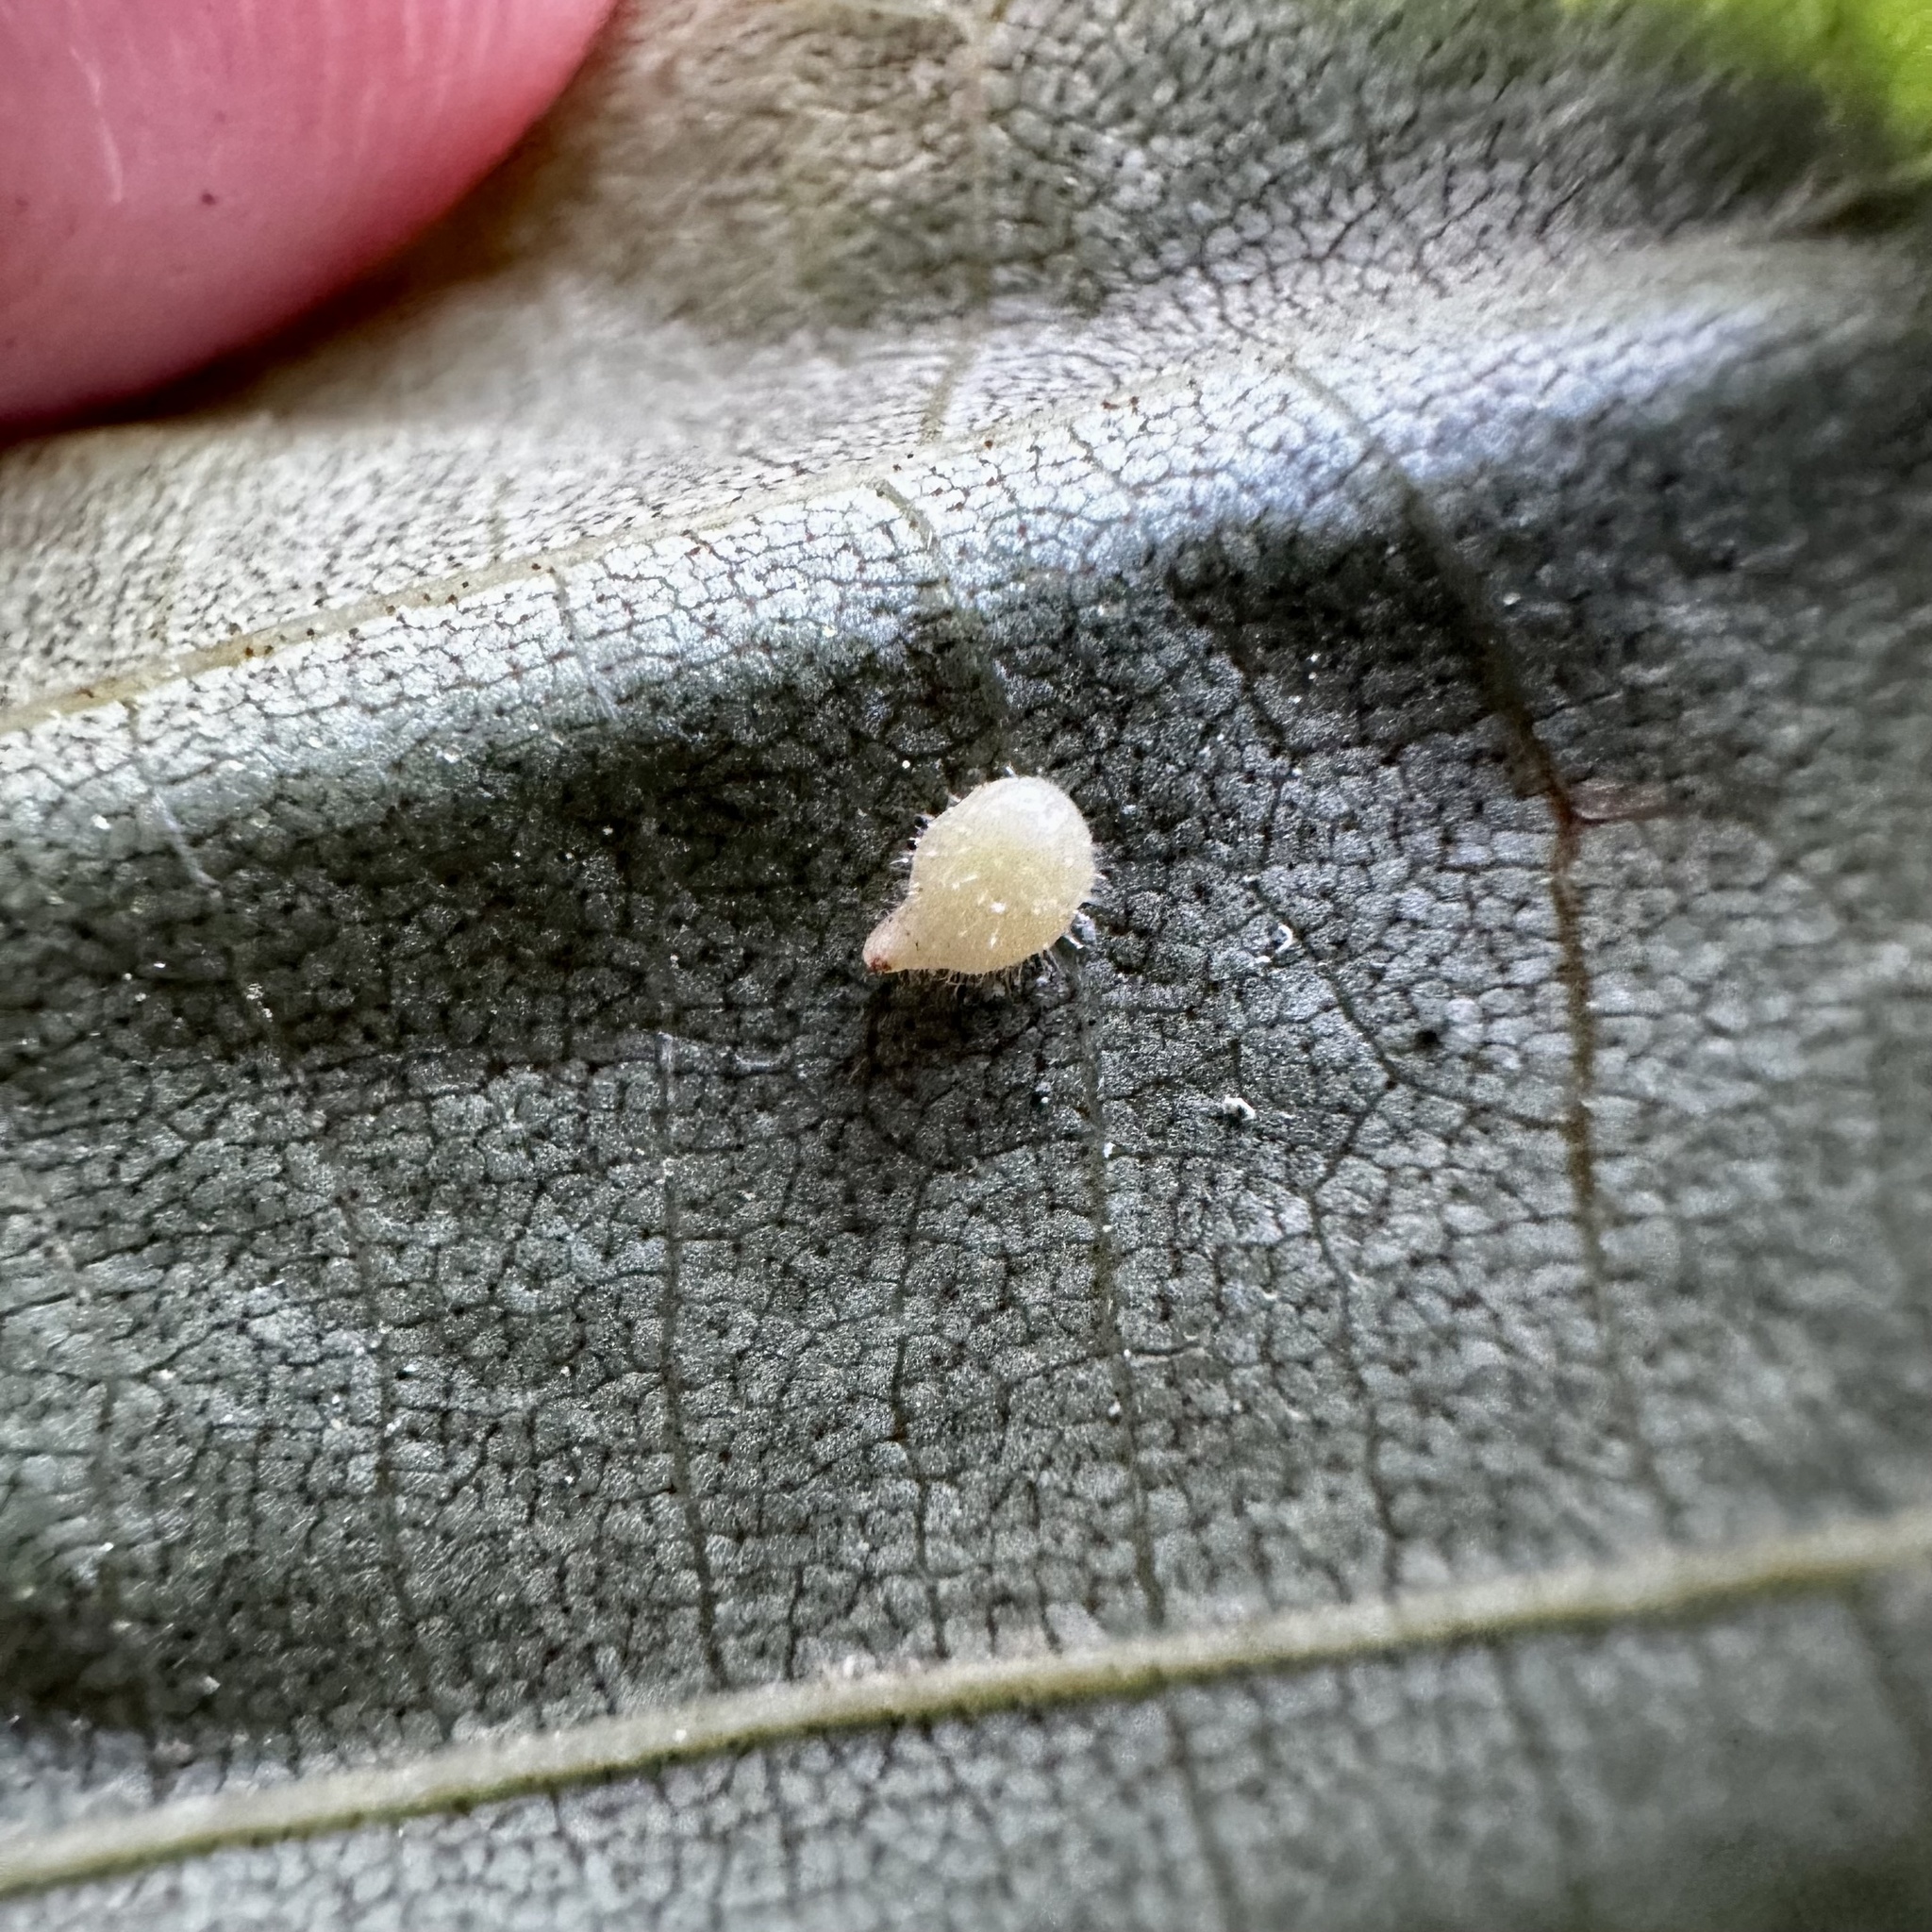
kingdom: Animalia
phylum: Arthropoda
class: Insecta
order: Diptera
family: Cecidomyiidae
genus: Caryomyia
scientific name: Caryomyia eumaris
